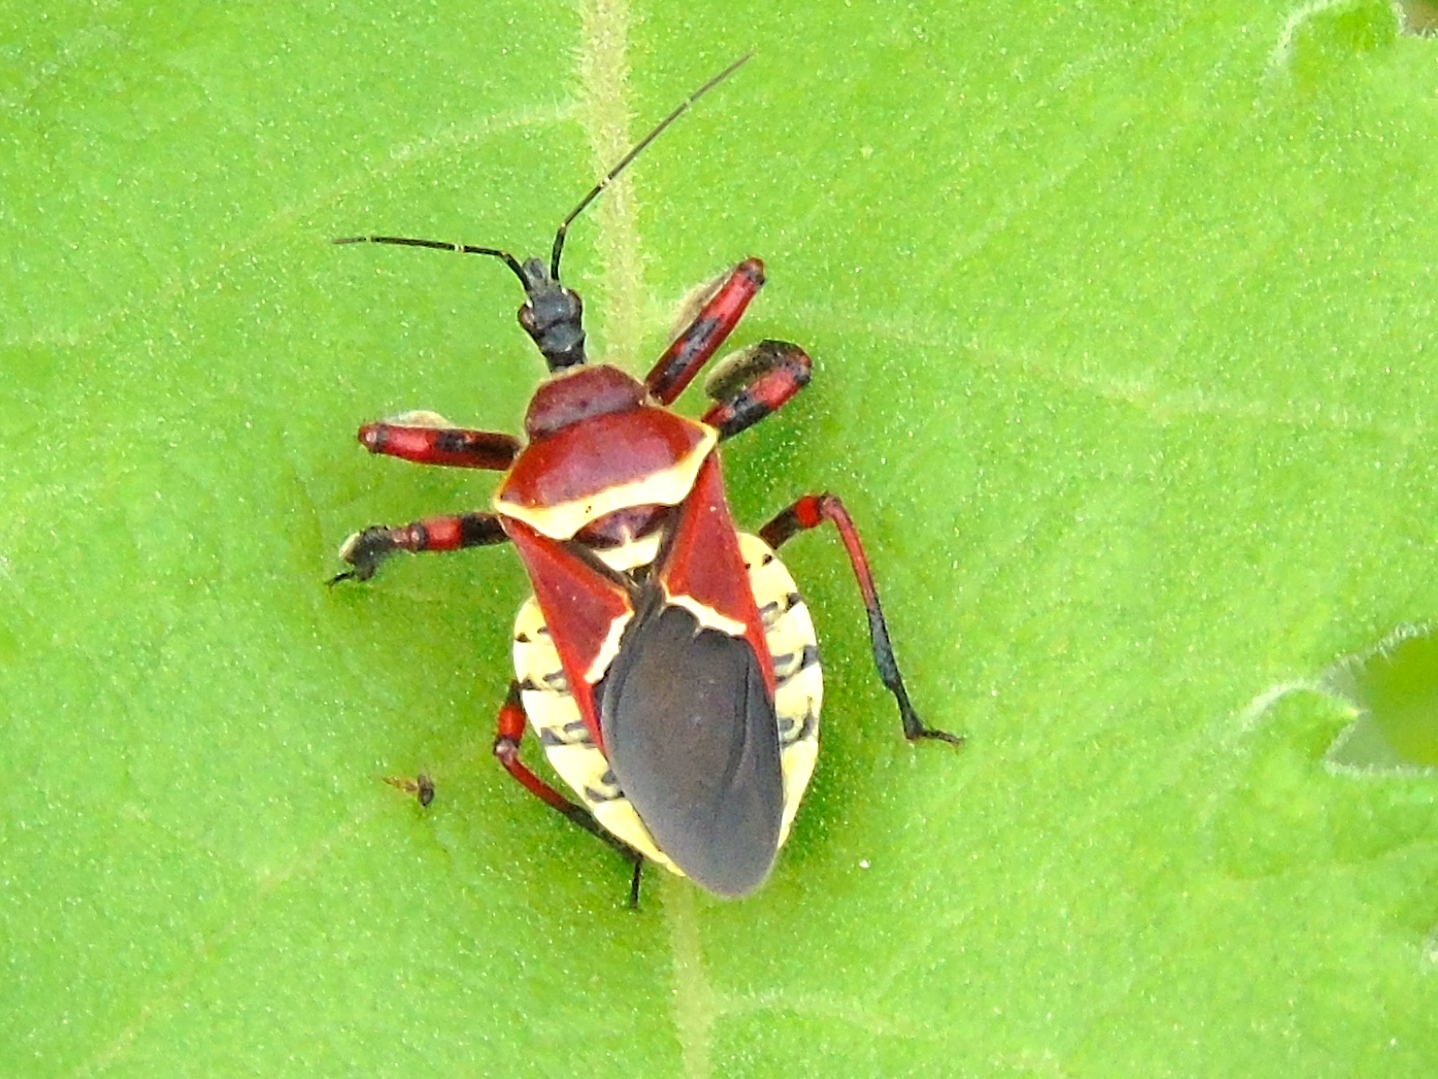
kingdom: Animalia
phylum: Arthropoda
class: Insecta
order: Hemiptera
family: Reduviidae
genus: Apiomerus
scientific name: Apiomerus flaviventris
